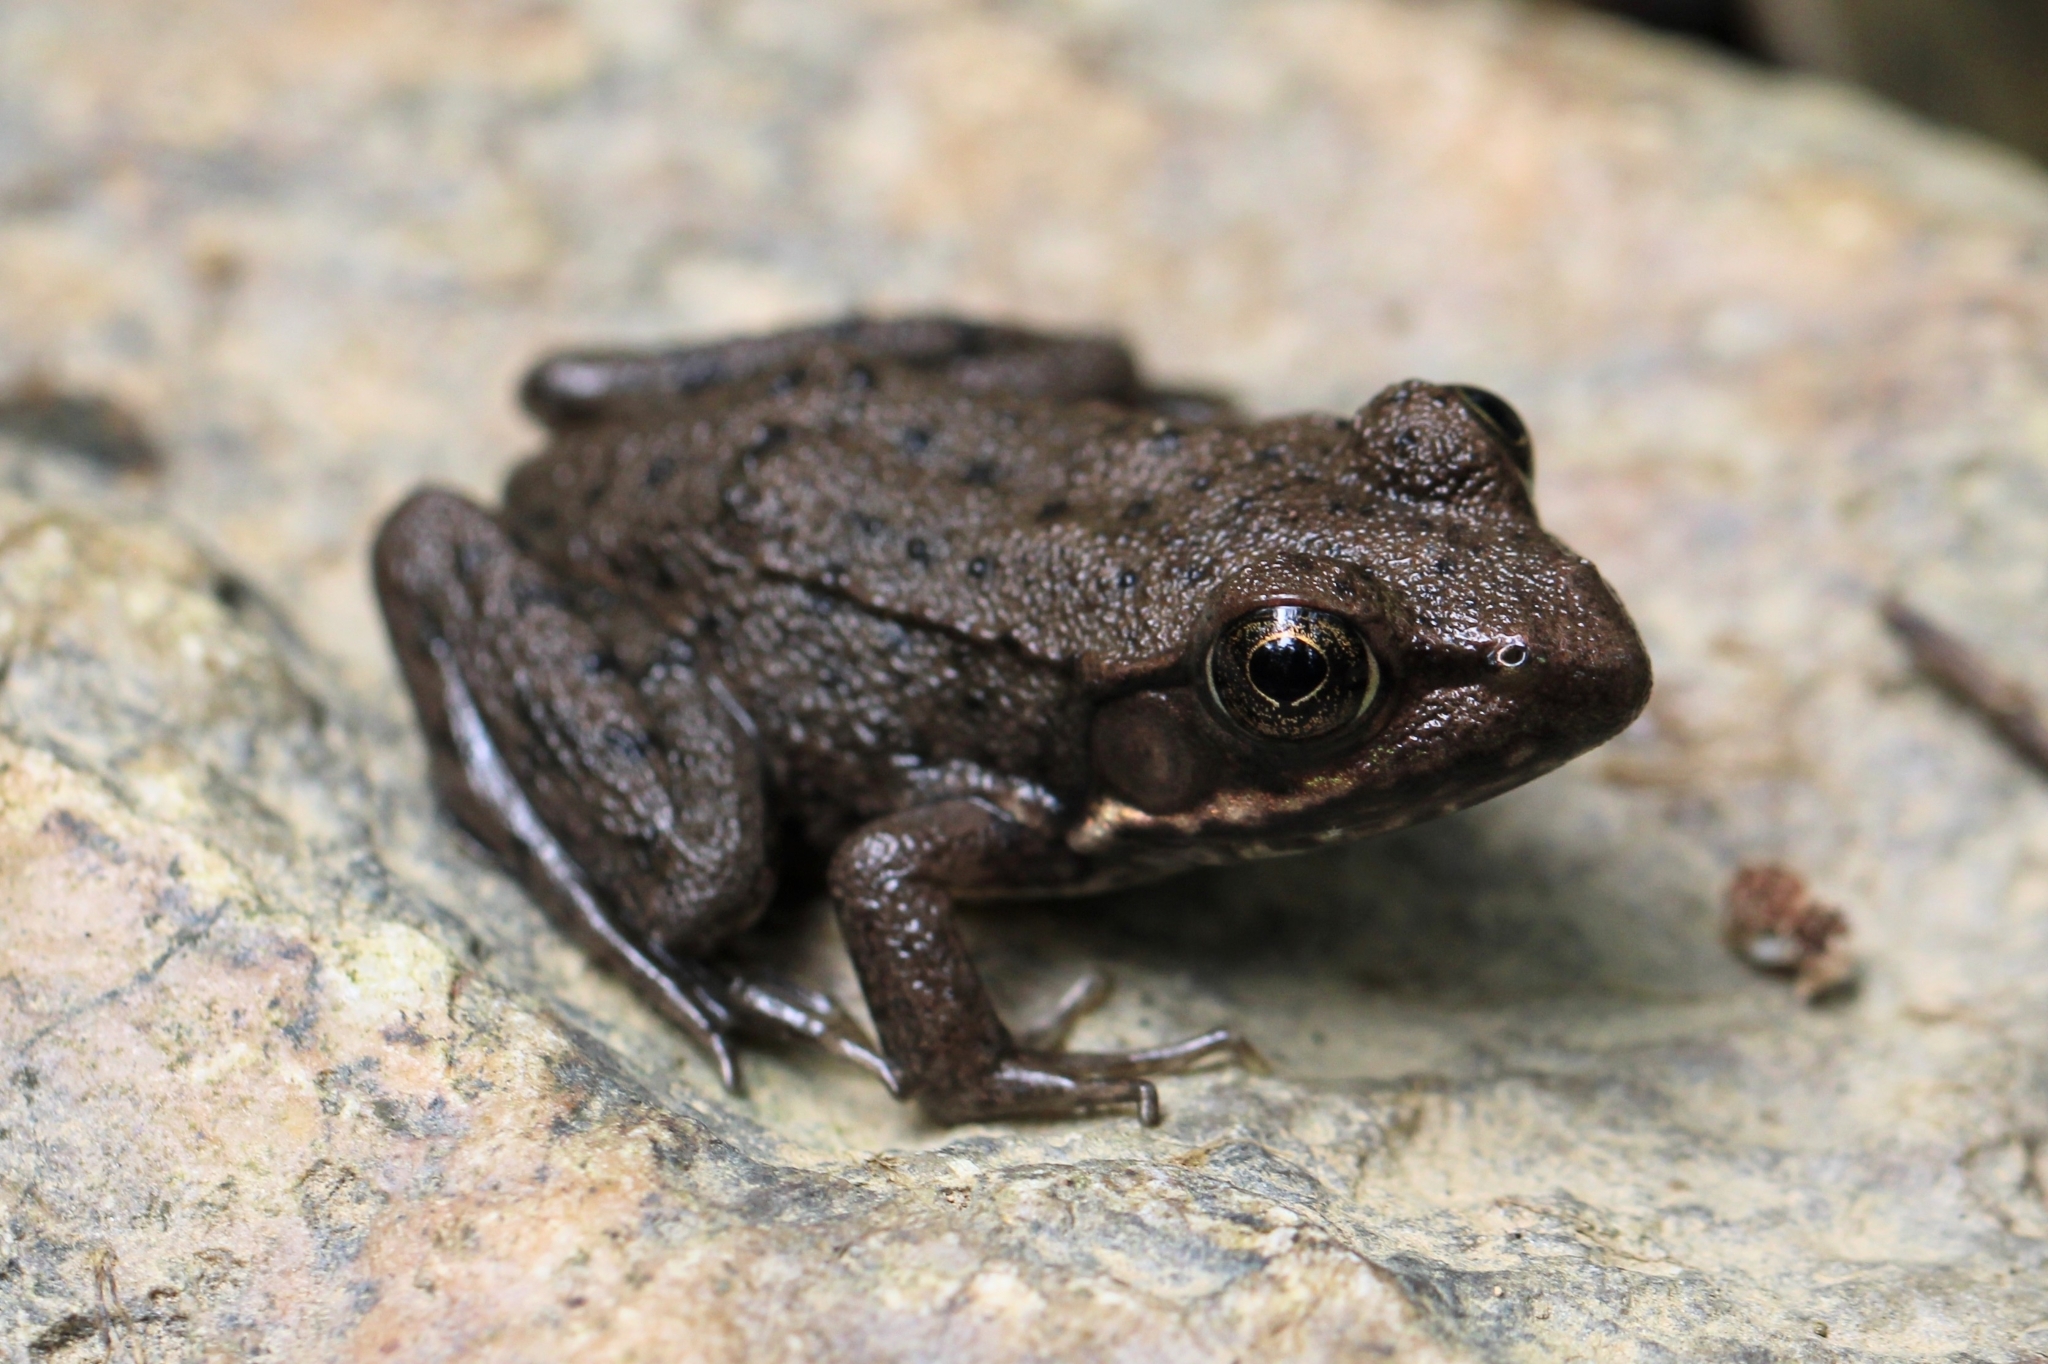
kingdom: Animalia
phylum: Chordata
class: Amphibia
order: Anura
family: Ranidae
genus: Lithobates
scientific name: Lithobates clamitans
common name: Green frog
